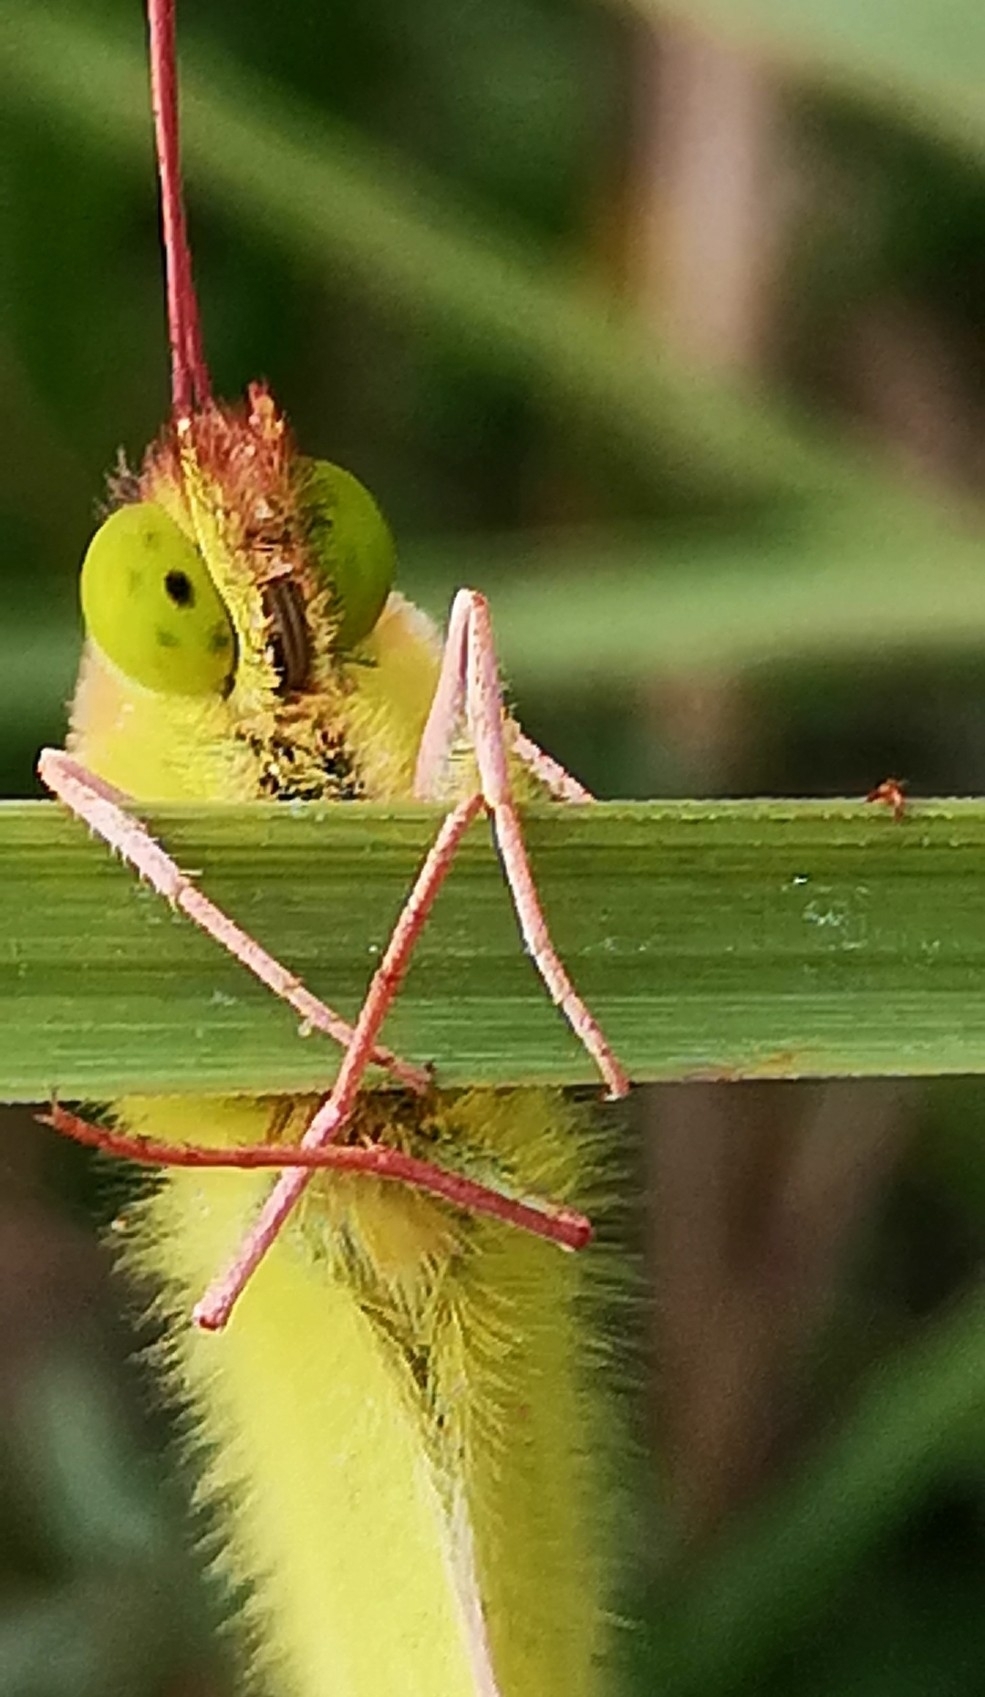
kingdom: Animalia
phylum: Arthropoda
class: Insecta
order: Lepidoptera
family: Pieridae
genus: Colias
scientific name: Colias croceus
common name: Clouded yellow
